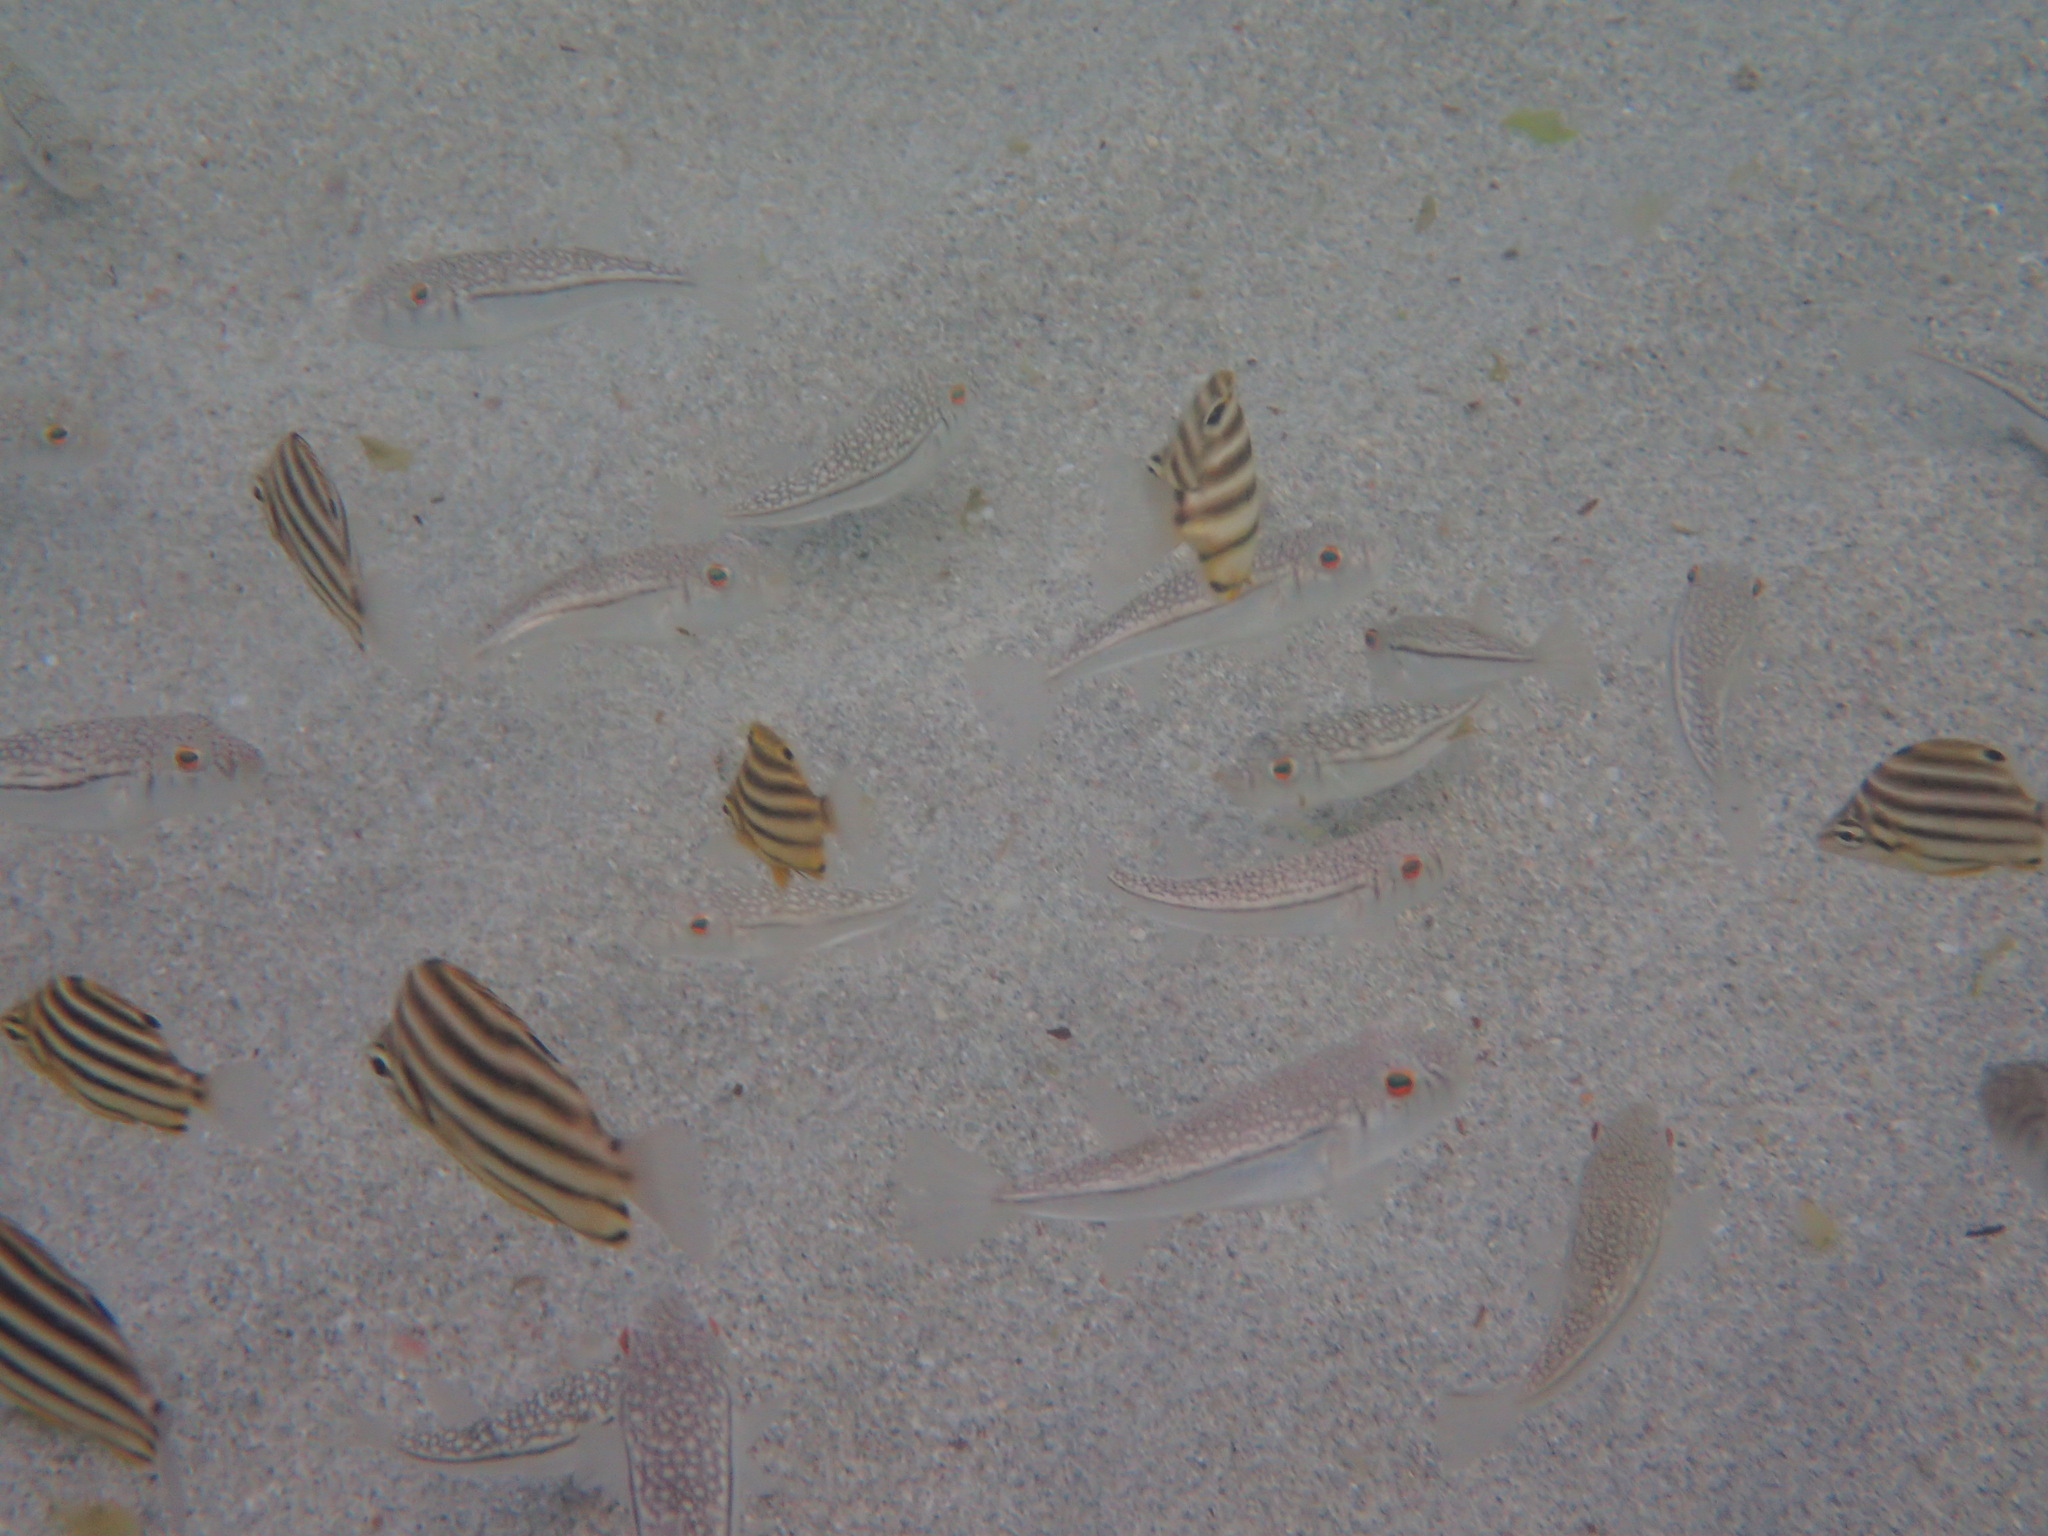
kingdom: Animalia
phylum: Chordata
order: Perciformes
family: Kyphosidae
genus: Microcanthus
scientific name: Microcanthus strigatus
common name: Stripey
